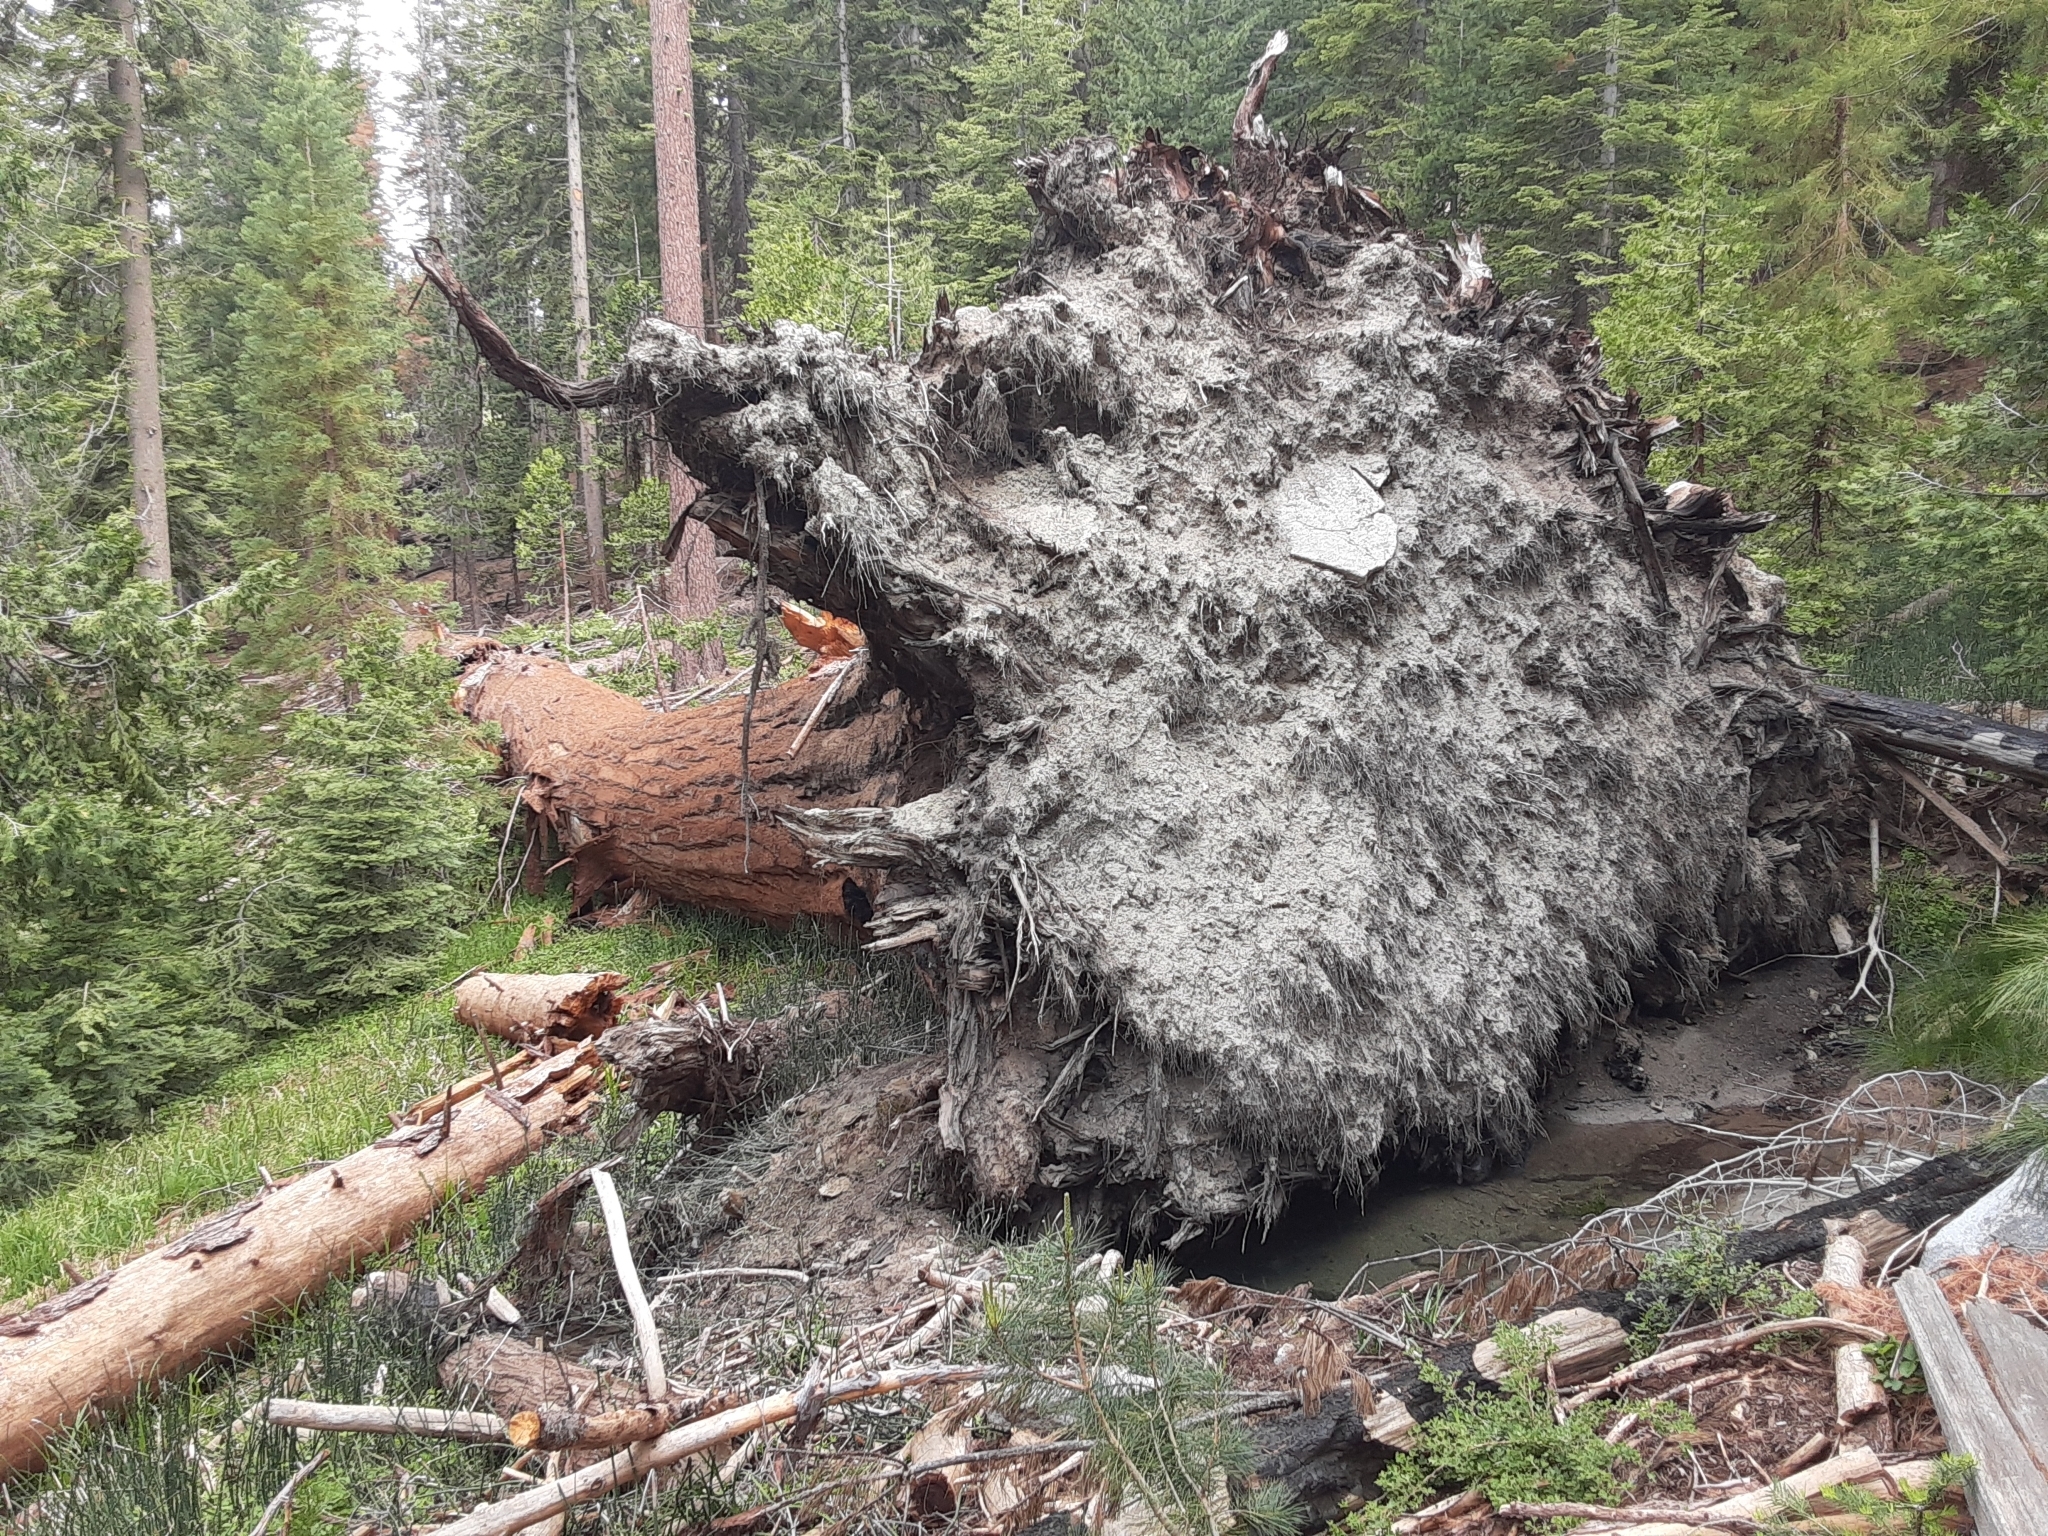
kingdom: Plantae
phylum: Tracheophyta
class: Pinopsida
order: Pinales
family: Cupressaceae
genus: Sequoiadendron
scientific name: Sequoiadendron giganteum
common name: Wellingtonia
